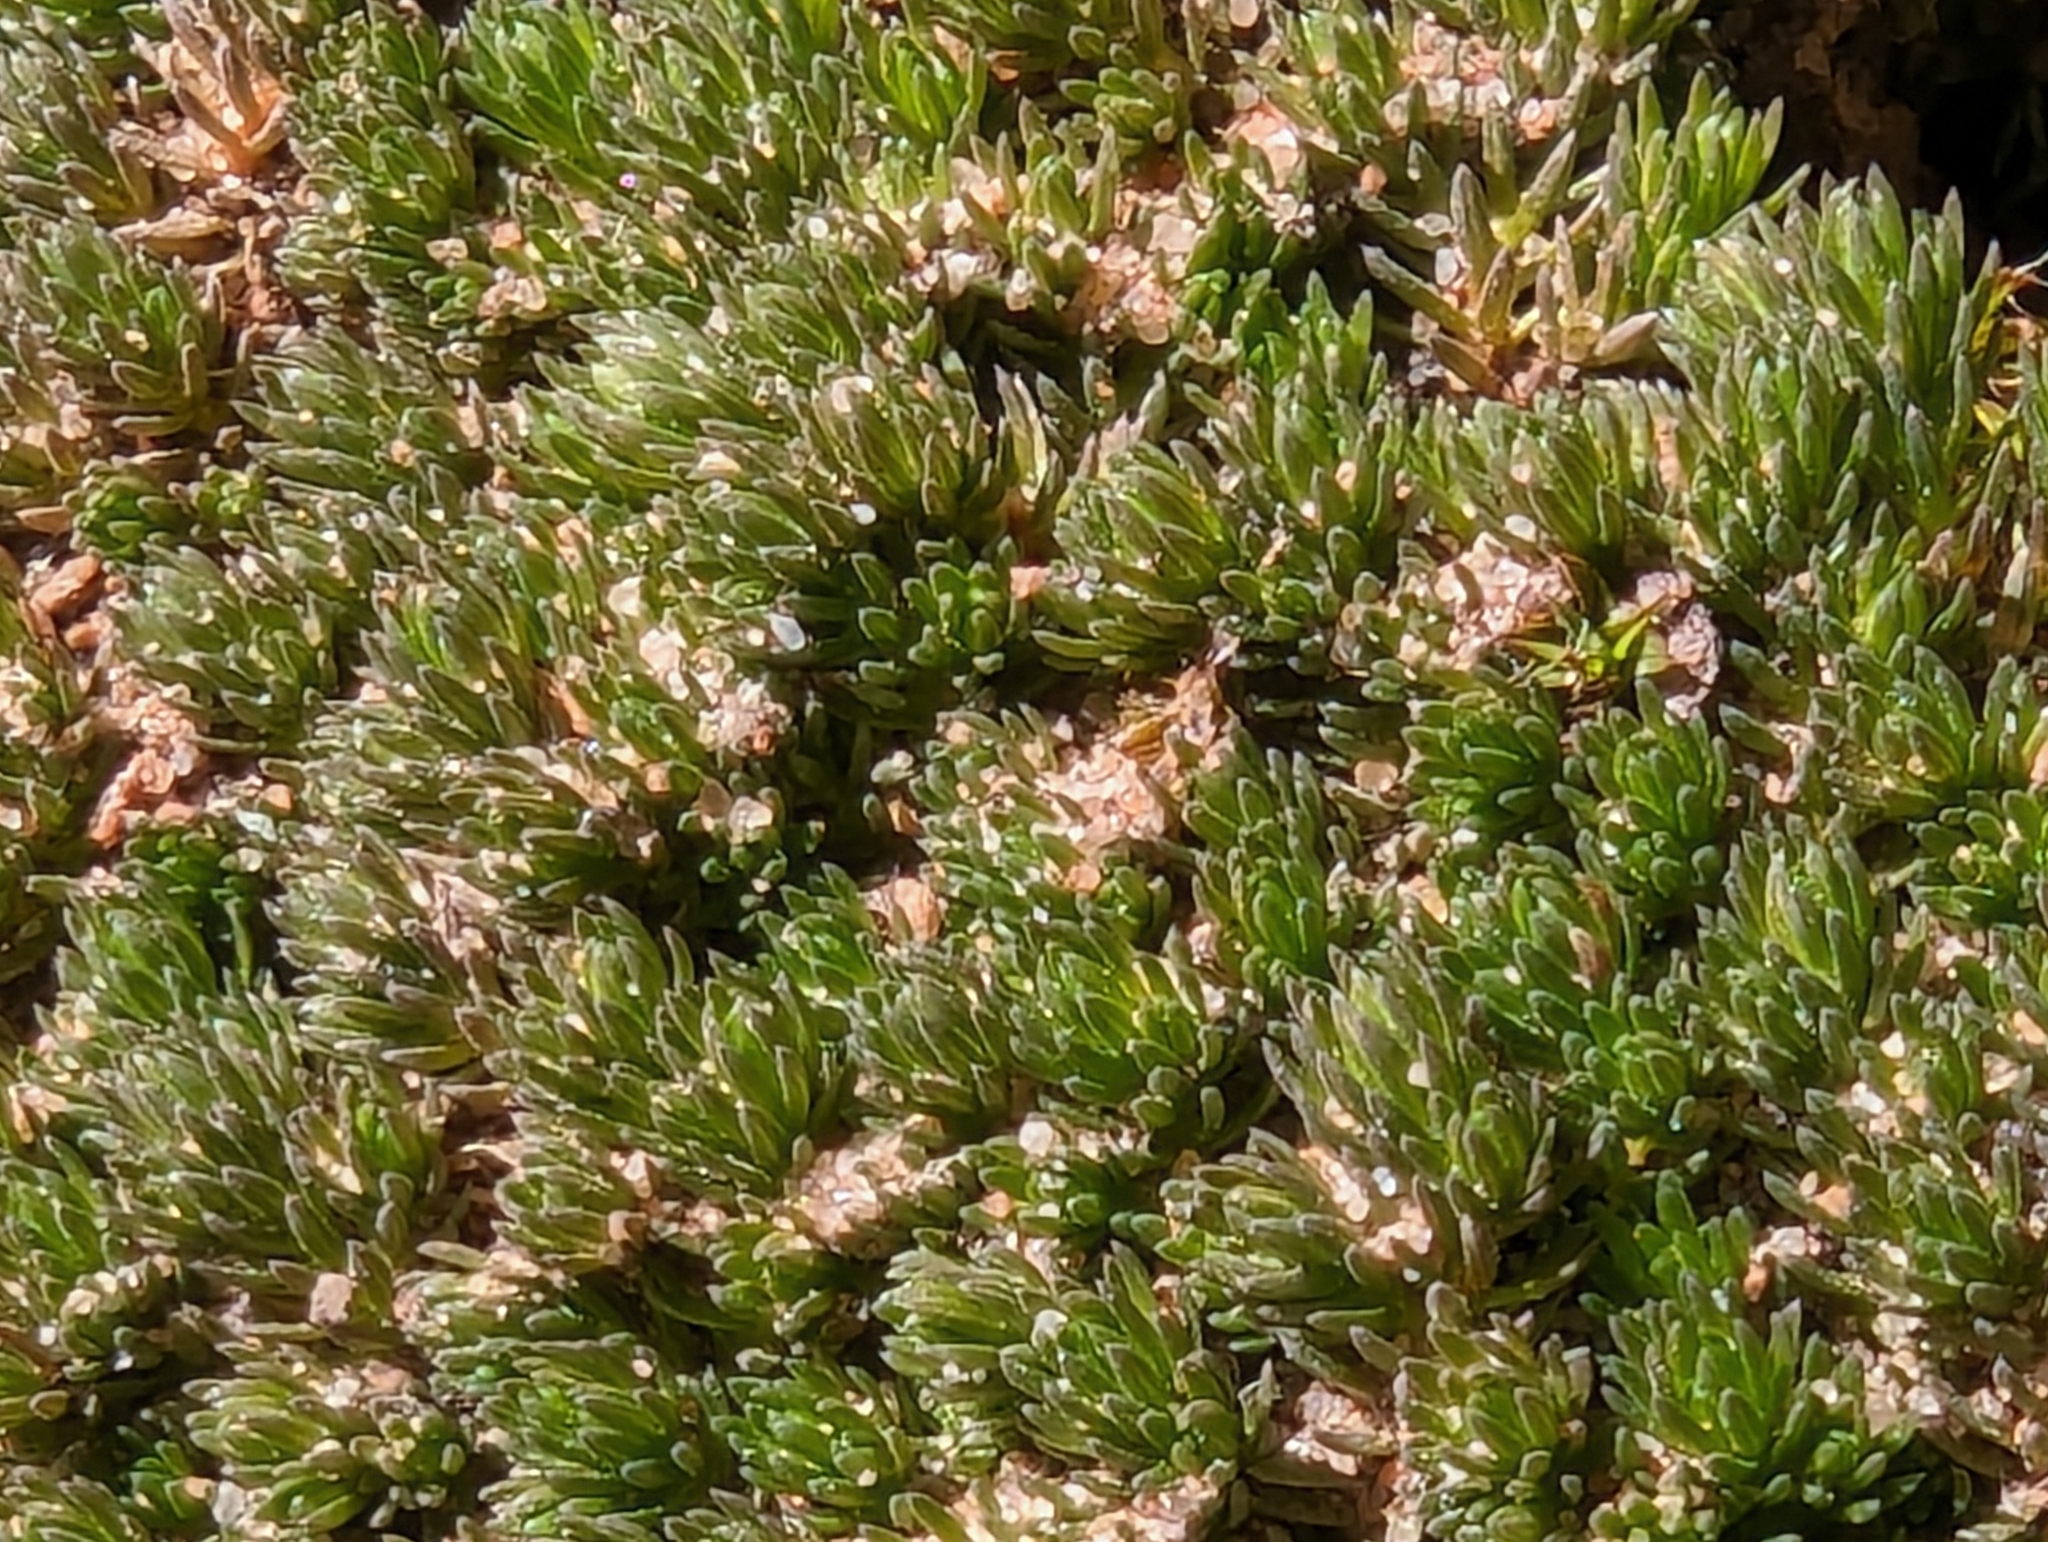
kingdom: Plantae
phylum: Tracheophyta
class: Lycopodiopsida
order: Selaginellales
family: Selaginellaceae
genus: Selaginella
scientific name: Selaginella utahensis
